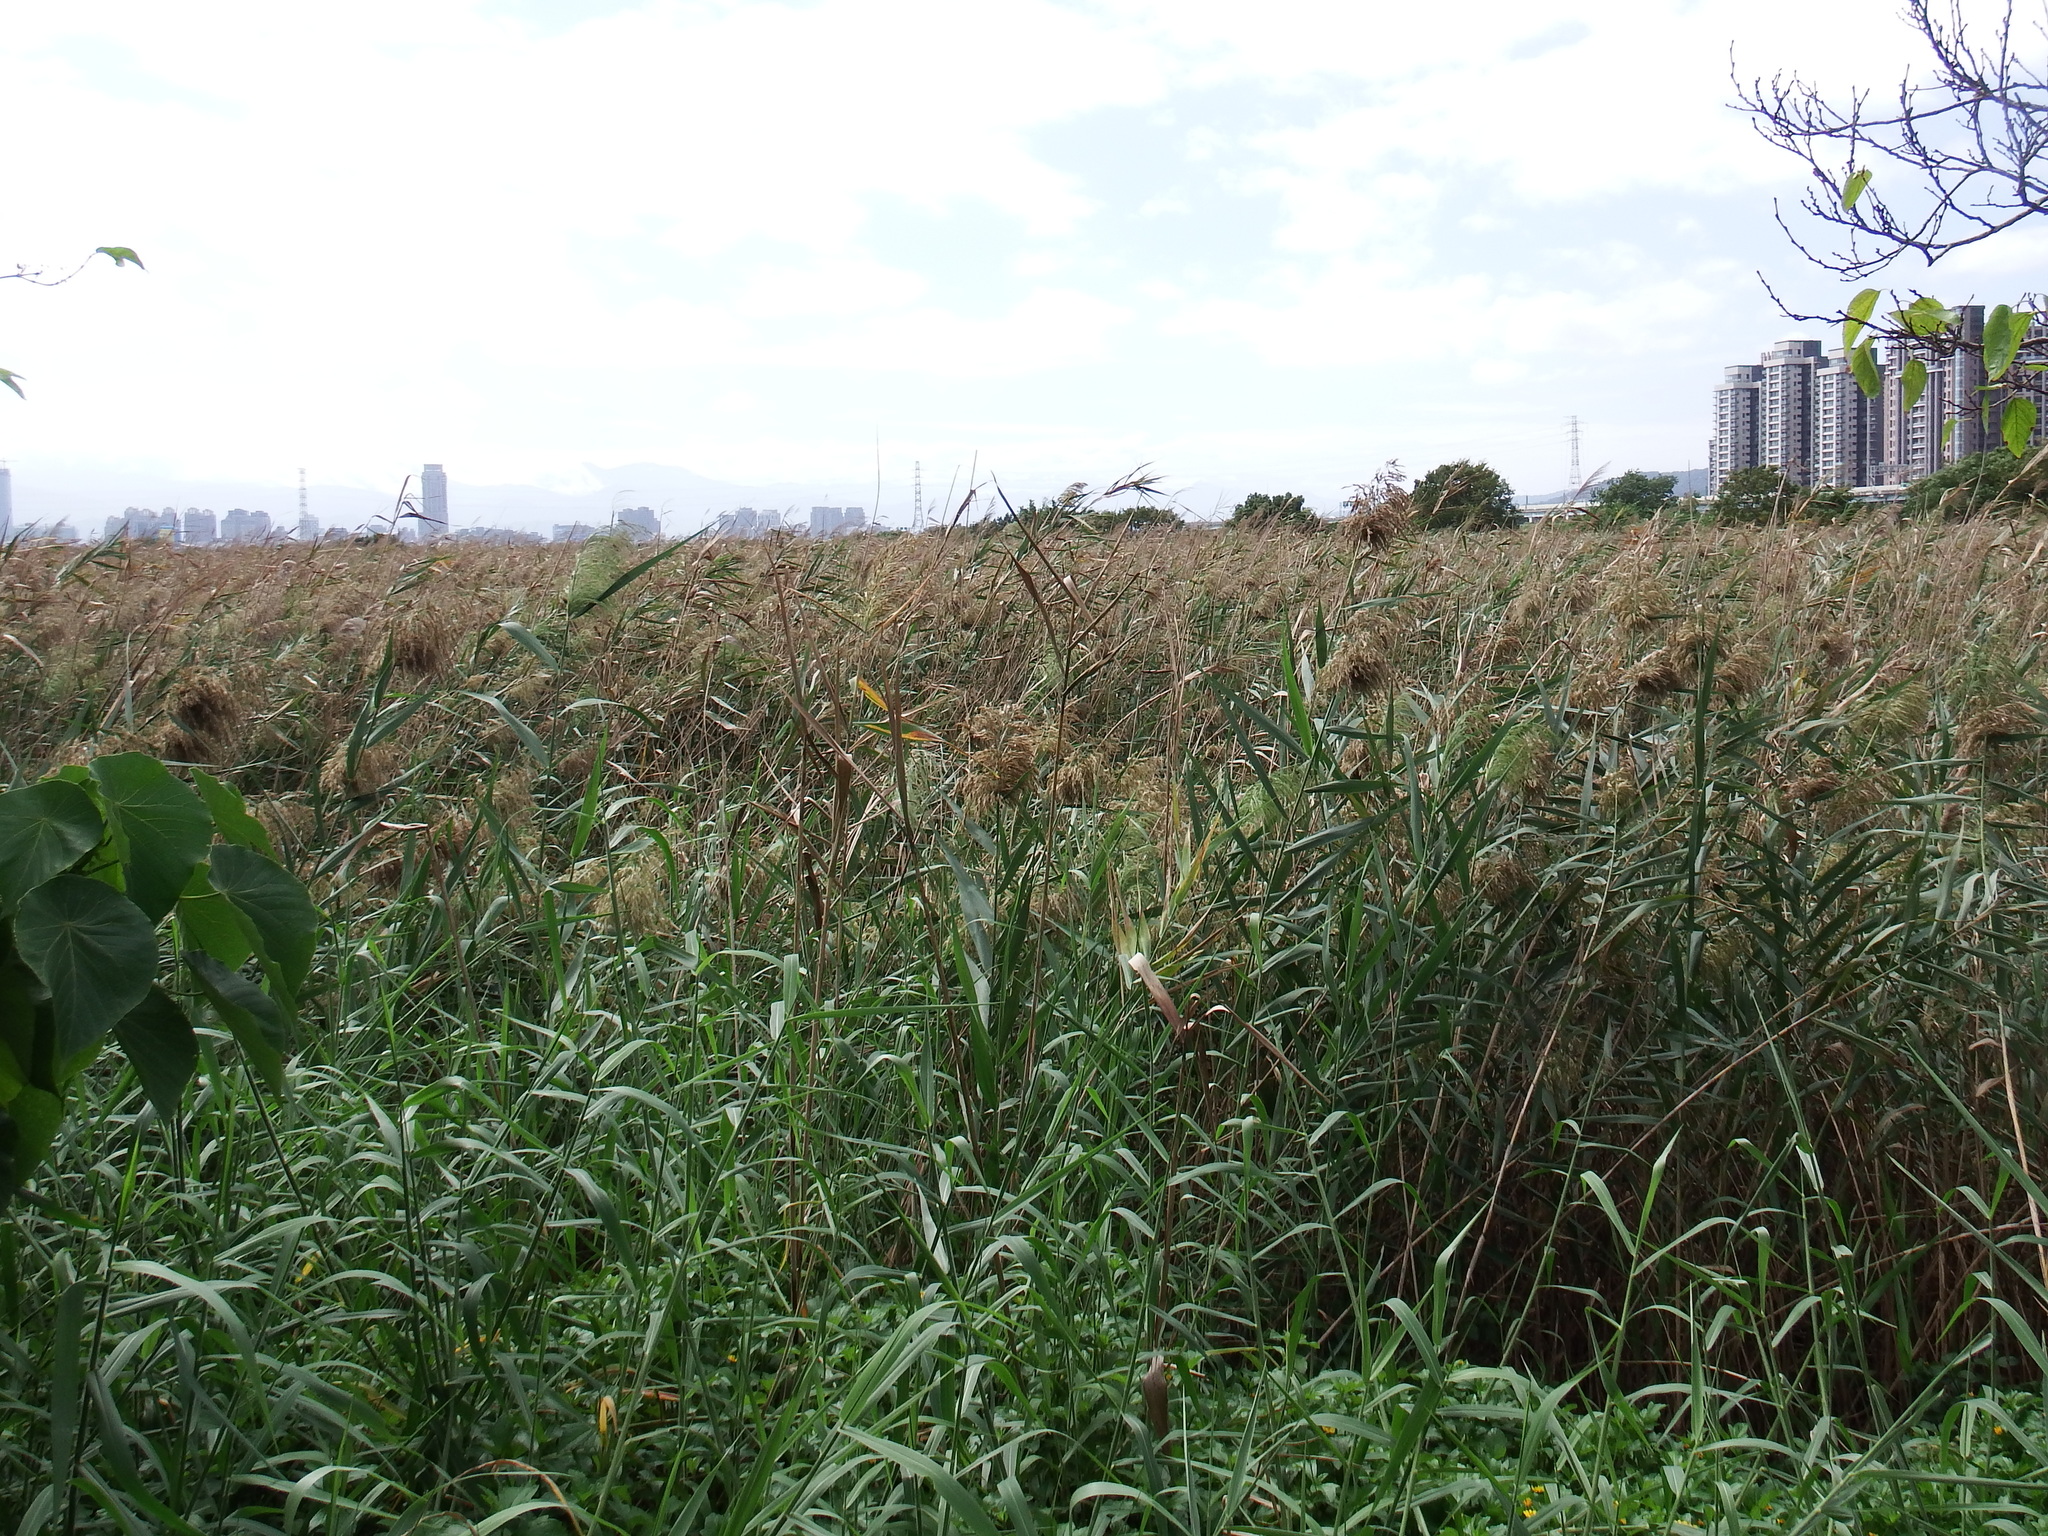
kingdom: Plantae
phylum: Tracheophyta
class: Liliopsida
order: Poales
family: Poaceae
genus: Phragmites
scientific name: Phragmites australis
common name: Common reed
